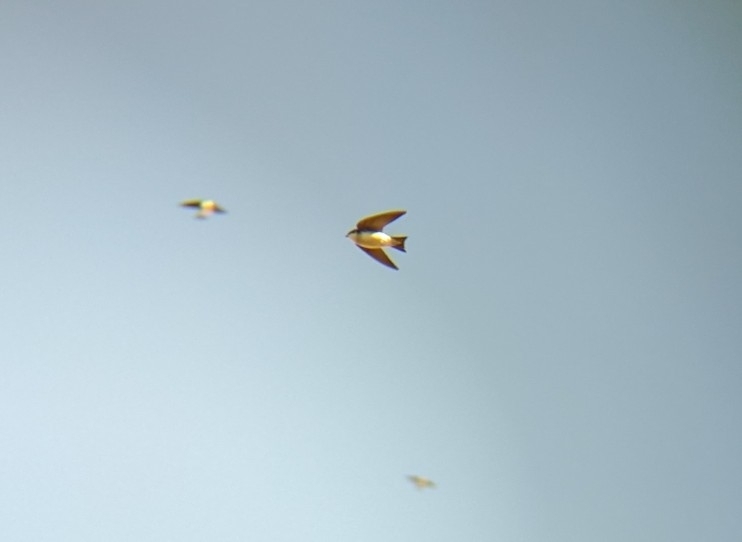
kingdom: Animalia
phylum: Chordata
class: Aves
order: Passeriformes
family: Hirundinidae
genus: Tachycineta
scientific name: Tachycineta bicolor
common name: Tree swallow
